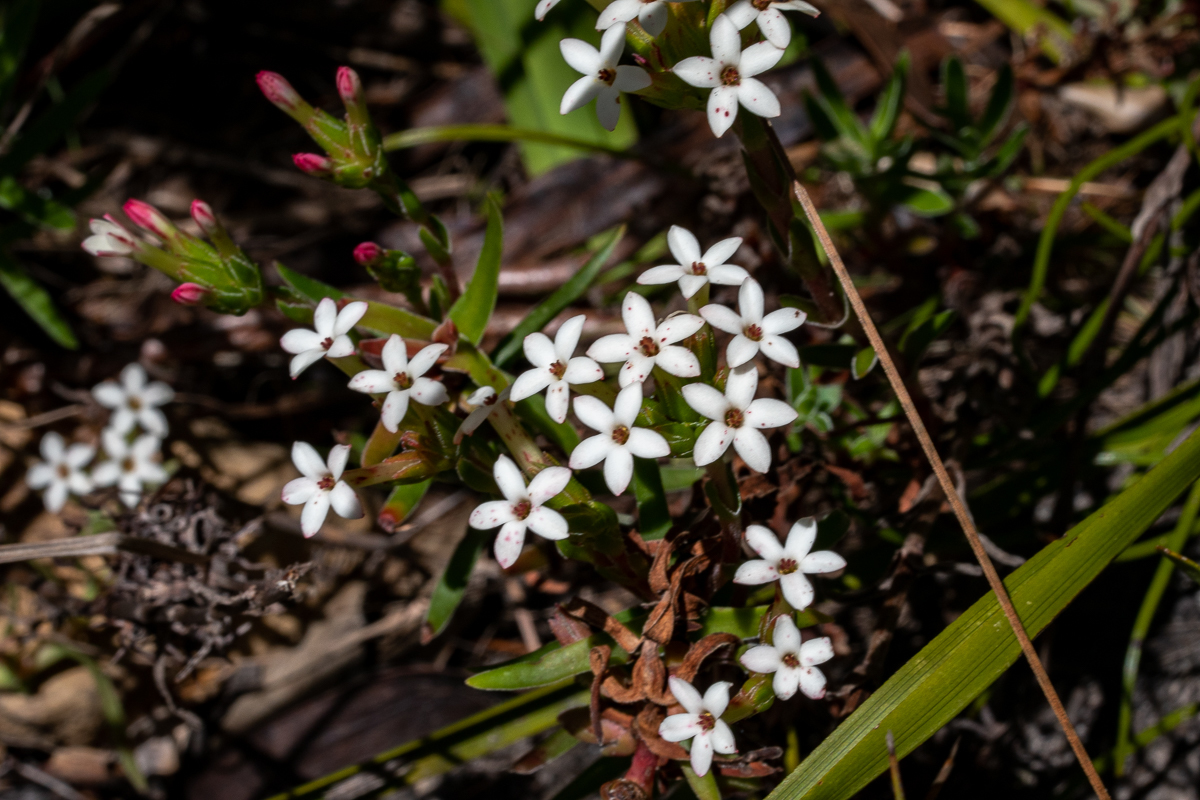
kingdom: Plantae
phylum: Tracheophyta
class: Magnoliopsida
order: Saxifragales
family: Crassulaceae
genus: Crassula
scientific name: Crassula fascicularis
